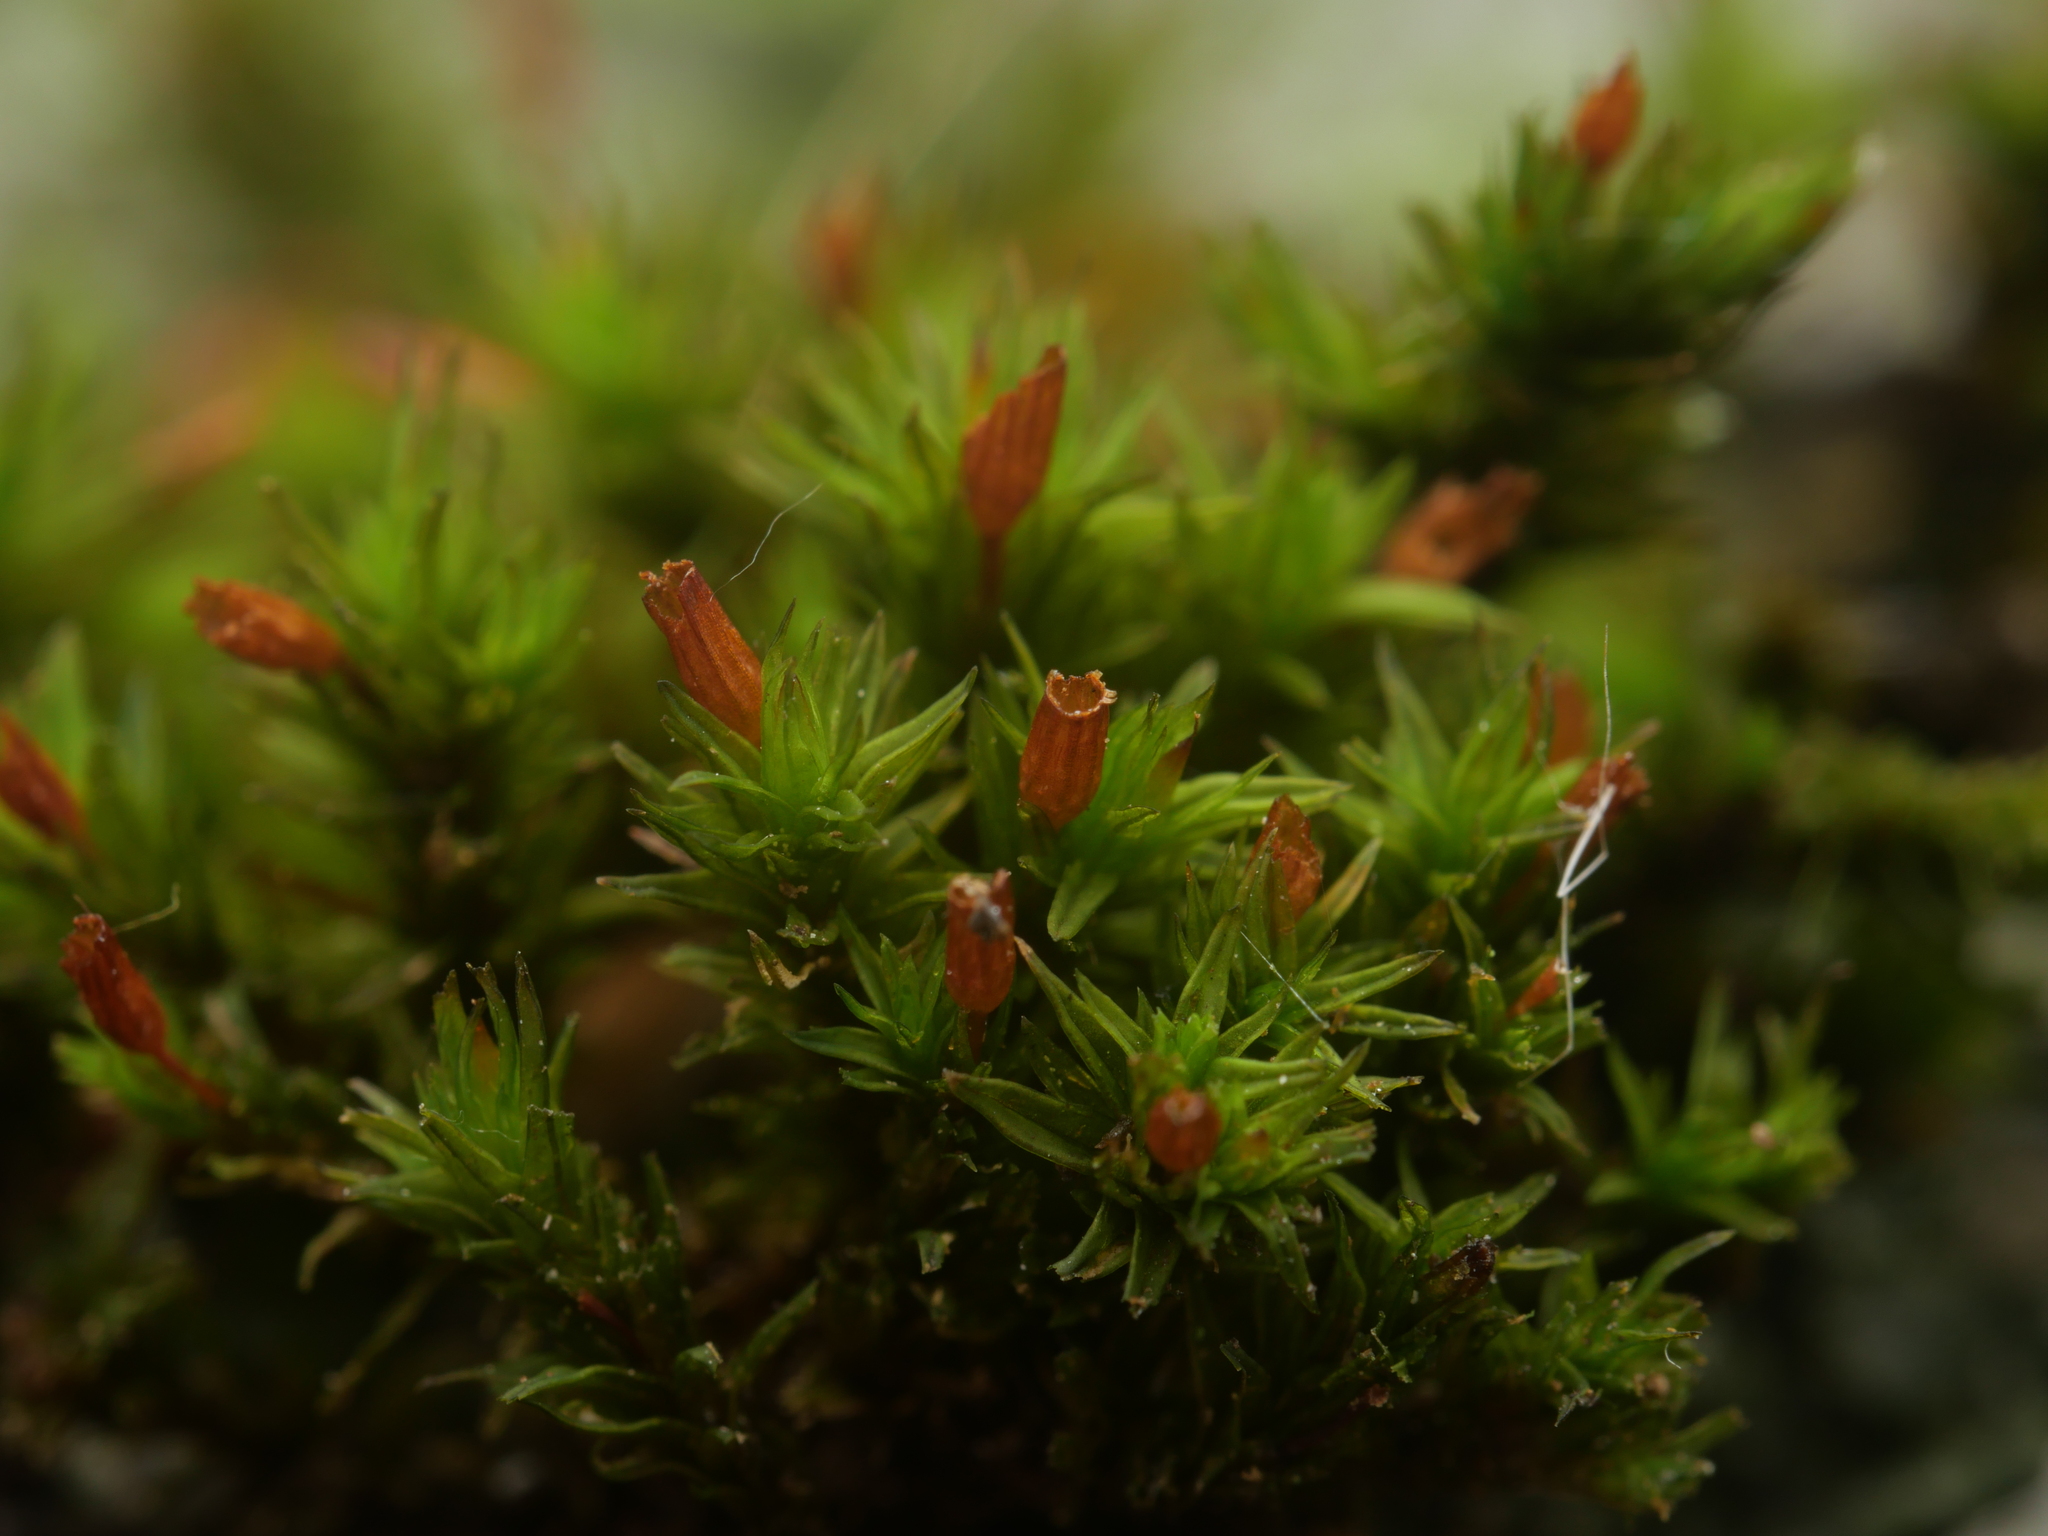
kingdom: Plantae
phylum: Bryophyta
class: Bryopsida
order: Orthotrichales
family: Orthotrichaceae
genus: Orthotrichum
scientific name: Orthotrichum anomalum
